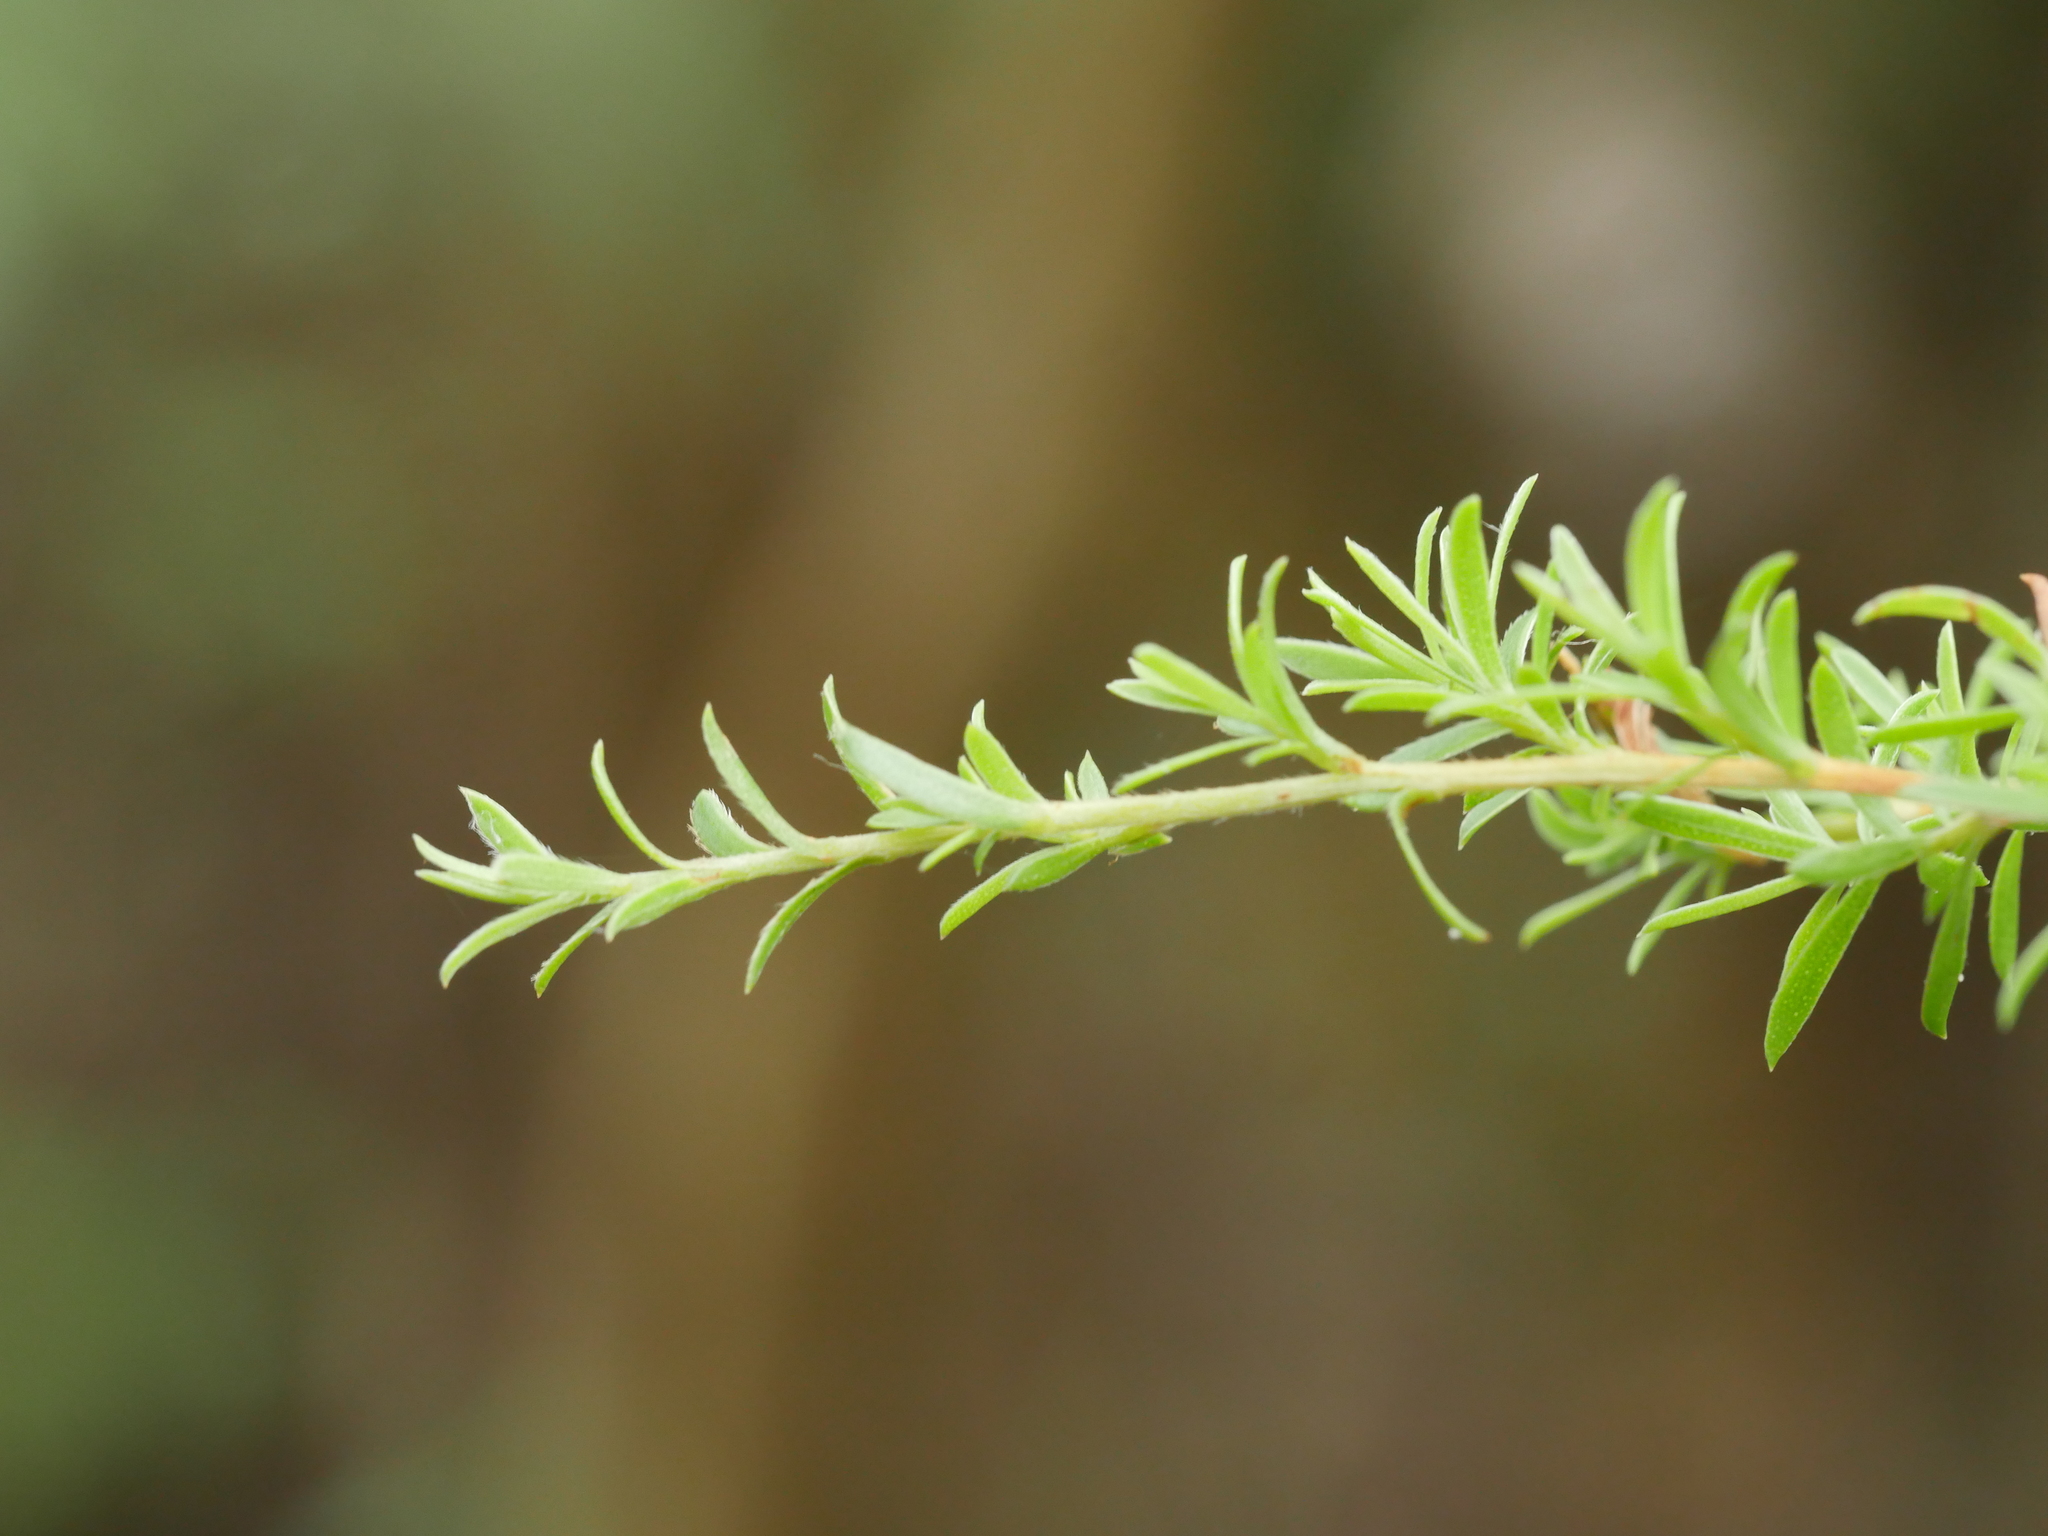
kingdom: Plantae
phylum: Tracheophyta
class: Magnoliopsida
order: Myrtales
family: Myrtaceae
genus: Kunzea
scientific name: Kunzea robusta
